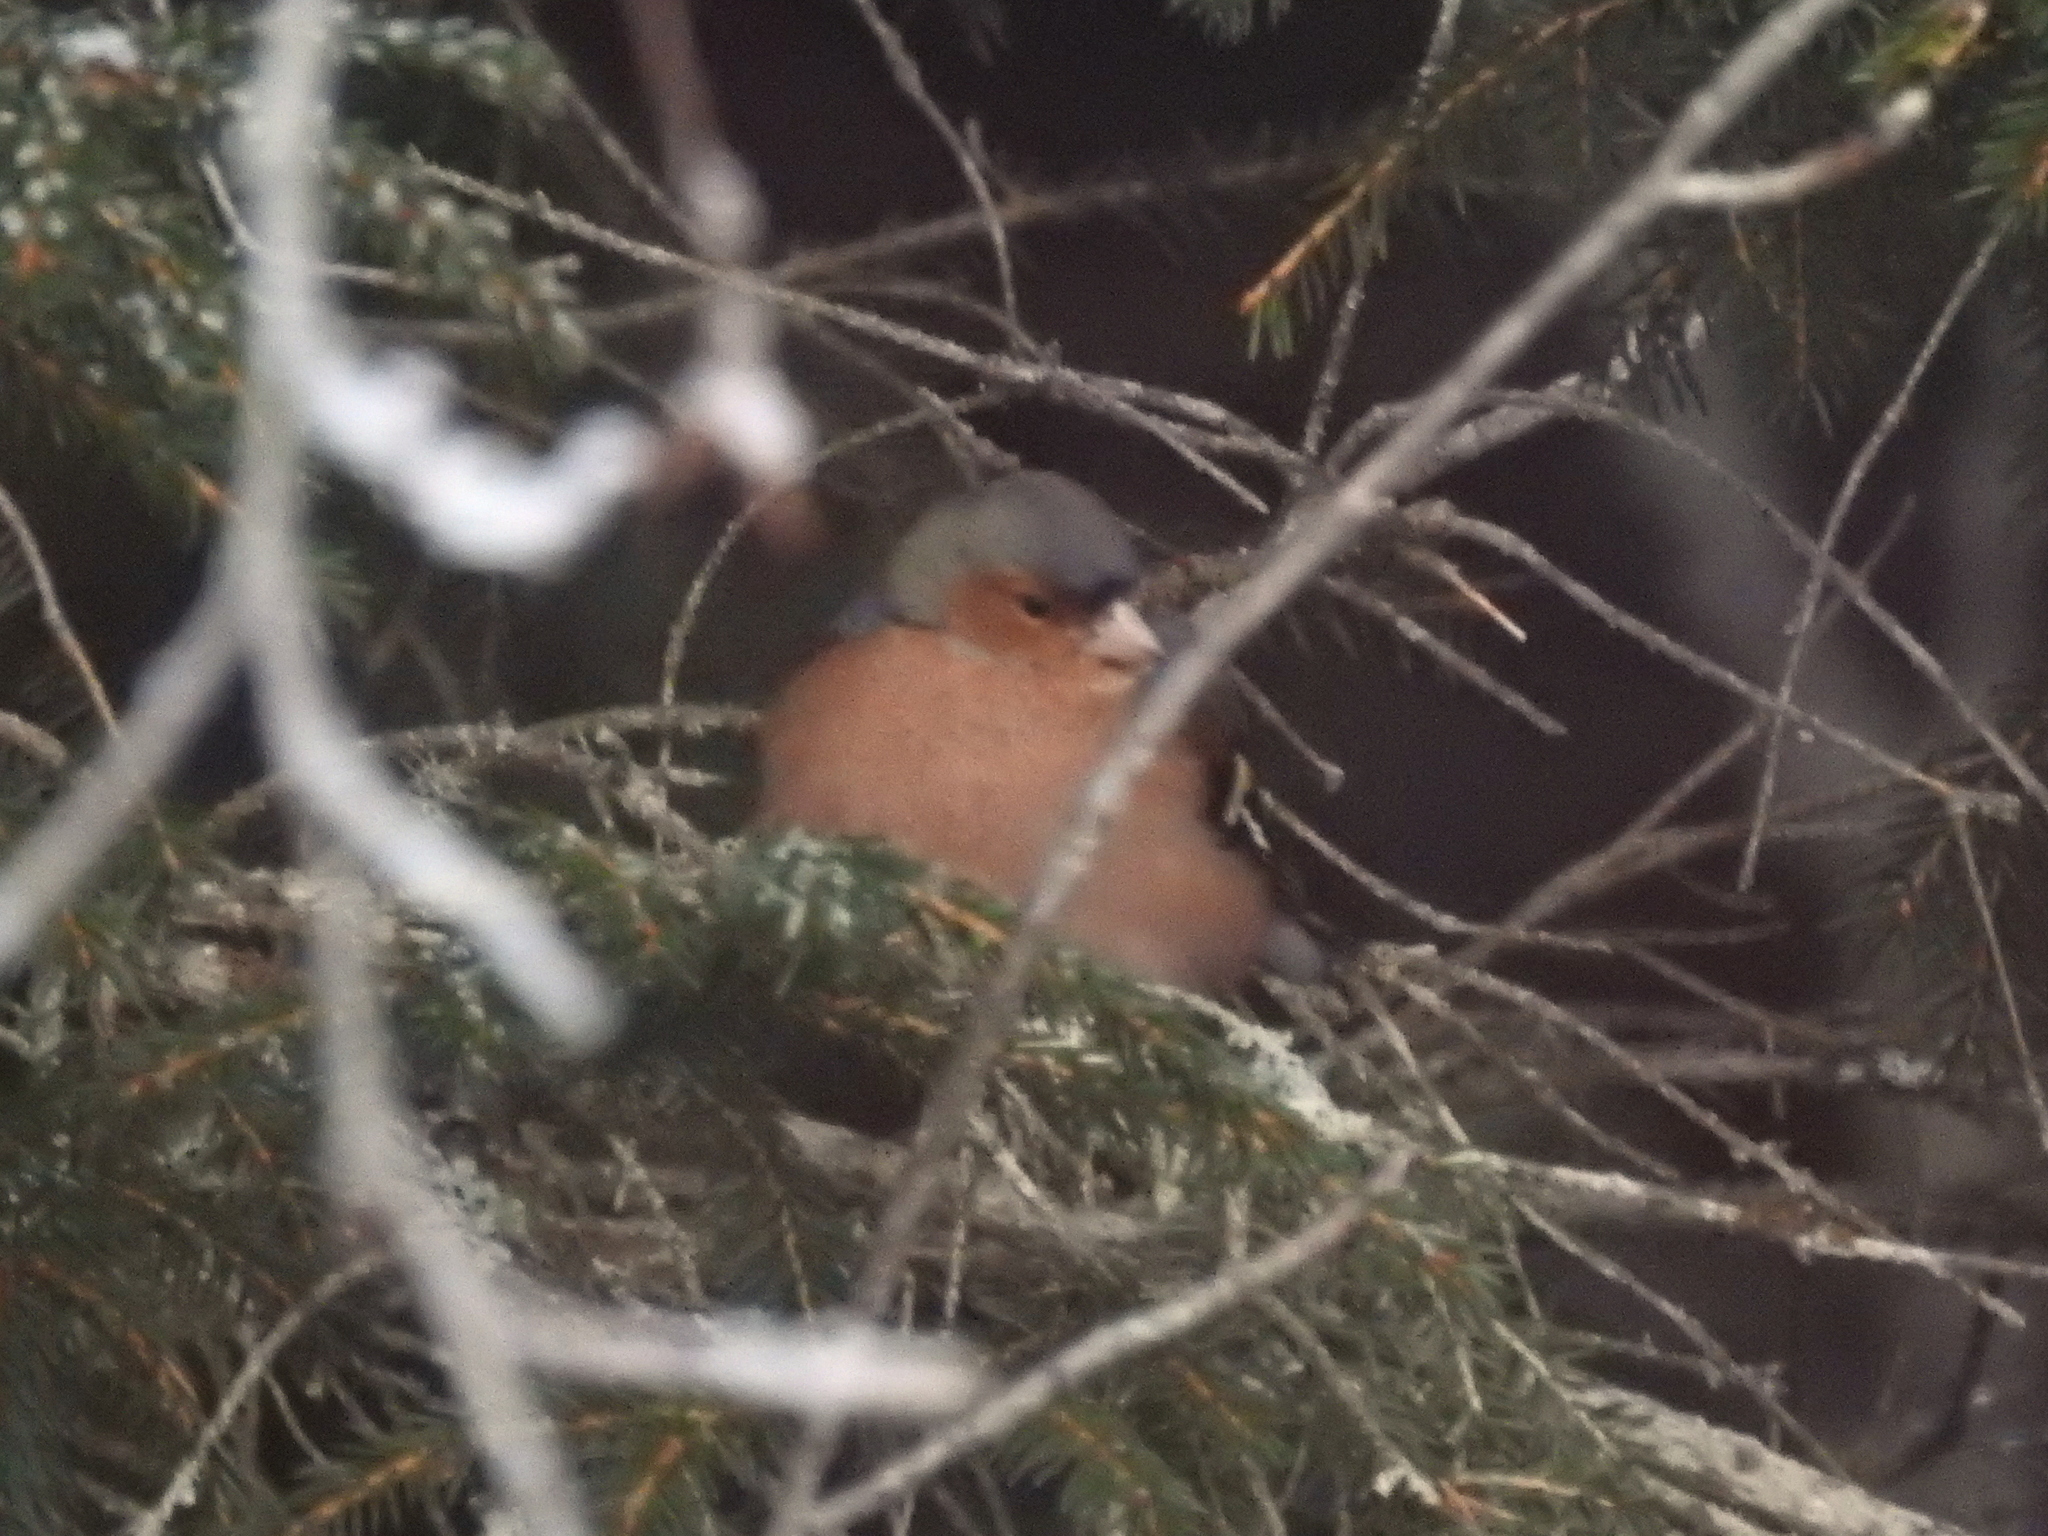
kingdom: Animalia
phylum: Chordata
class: Aves
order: Passeriformes
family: Fringillidae
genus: Fringilla
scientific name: Fringilla coelebs
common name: Common chaffinch
